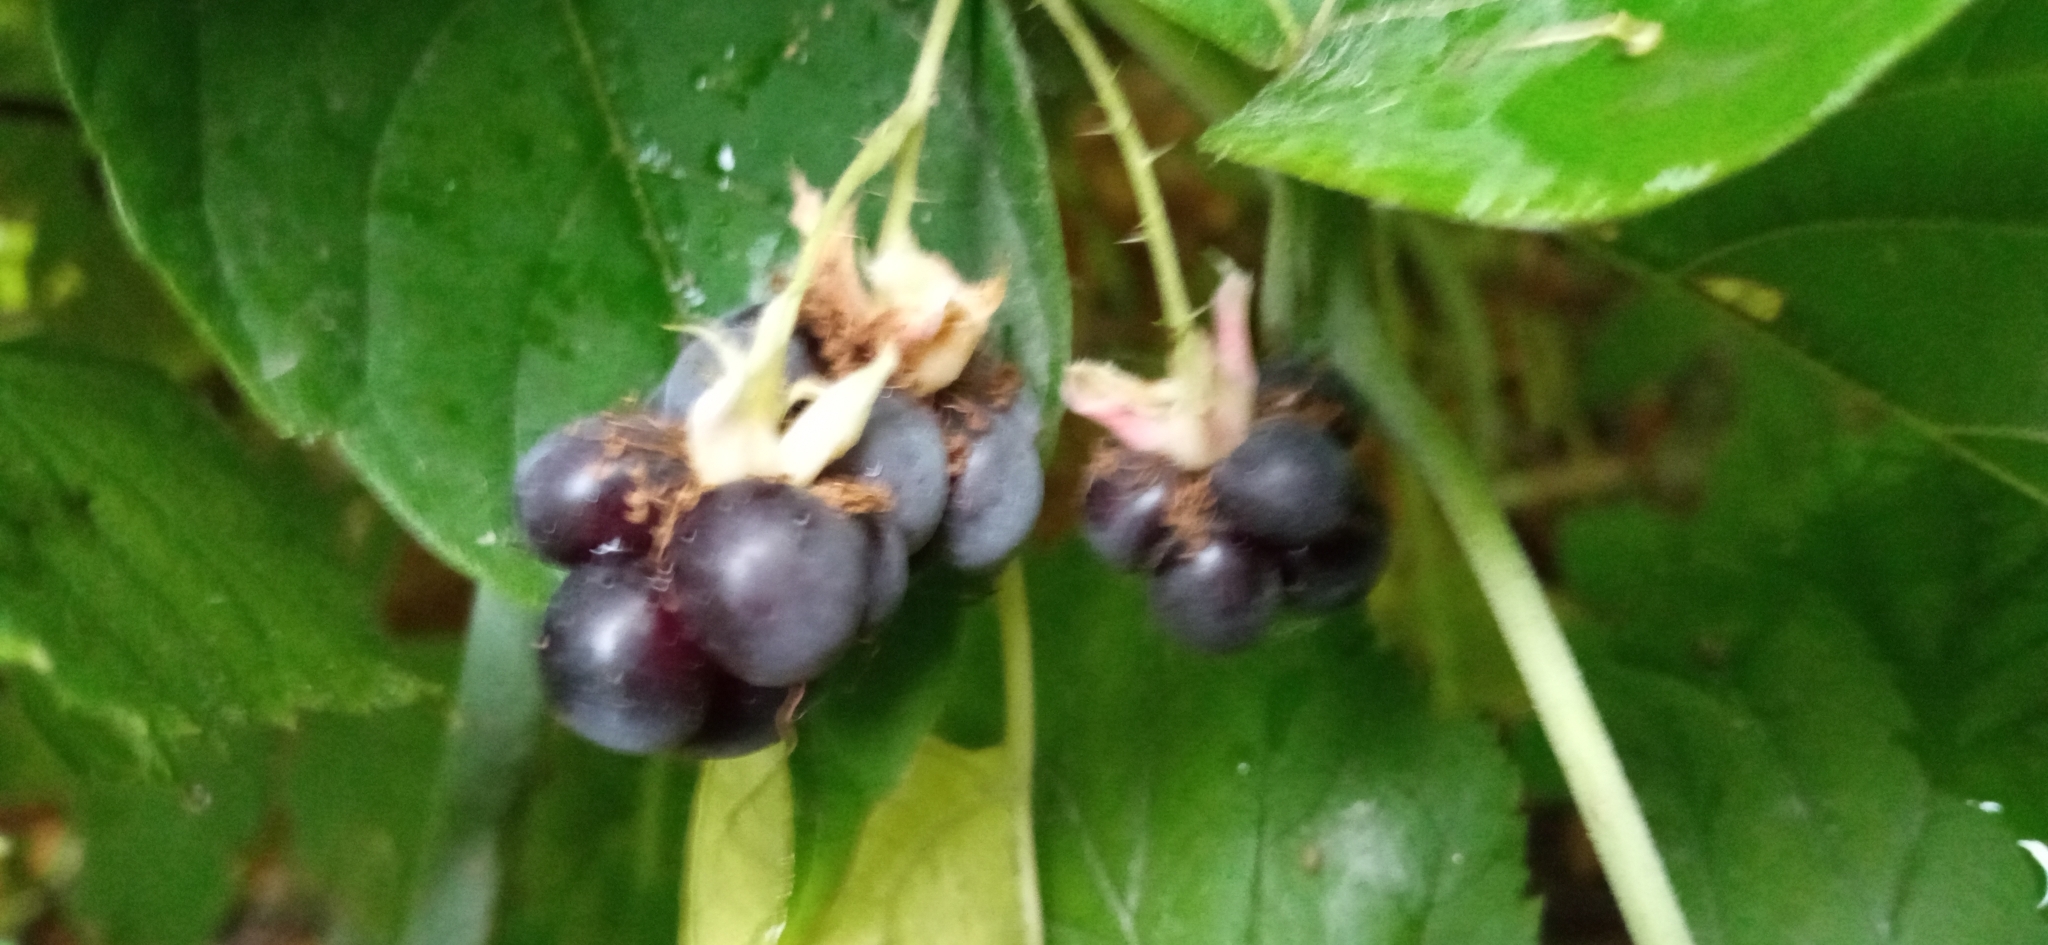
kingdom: Plantae
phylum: Tracheophyta
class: Magnoliopsida
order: Rosales
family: Rosaceae
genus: Rubus
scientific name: Rubus caesius
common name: Dewberry
